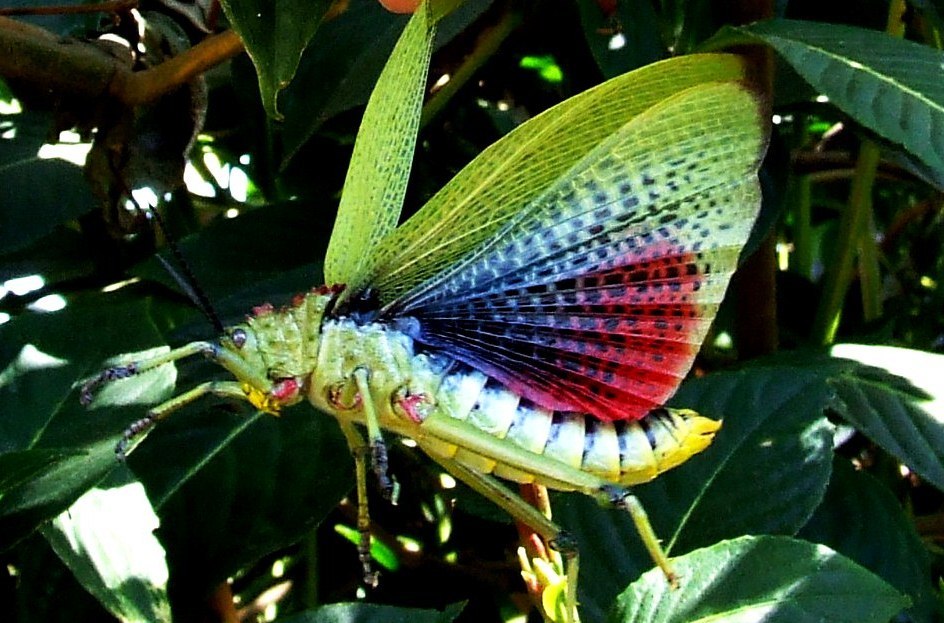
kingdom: Animalia
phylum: Arthropoda
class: Insecta
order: Orthoptera
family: Pyrgomorphidae
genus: Phymateus
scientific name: Phymateus viridipes
